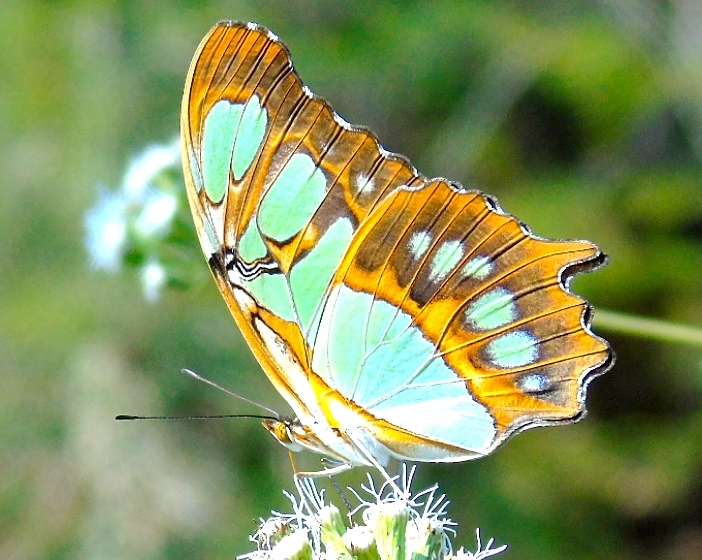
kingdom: Animalia
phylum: Arthropoda
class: Insecta
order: Lepidoptera
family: Nymphalidae
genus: Siproeta
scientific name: Siproeta stelenes
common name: Malachite
